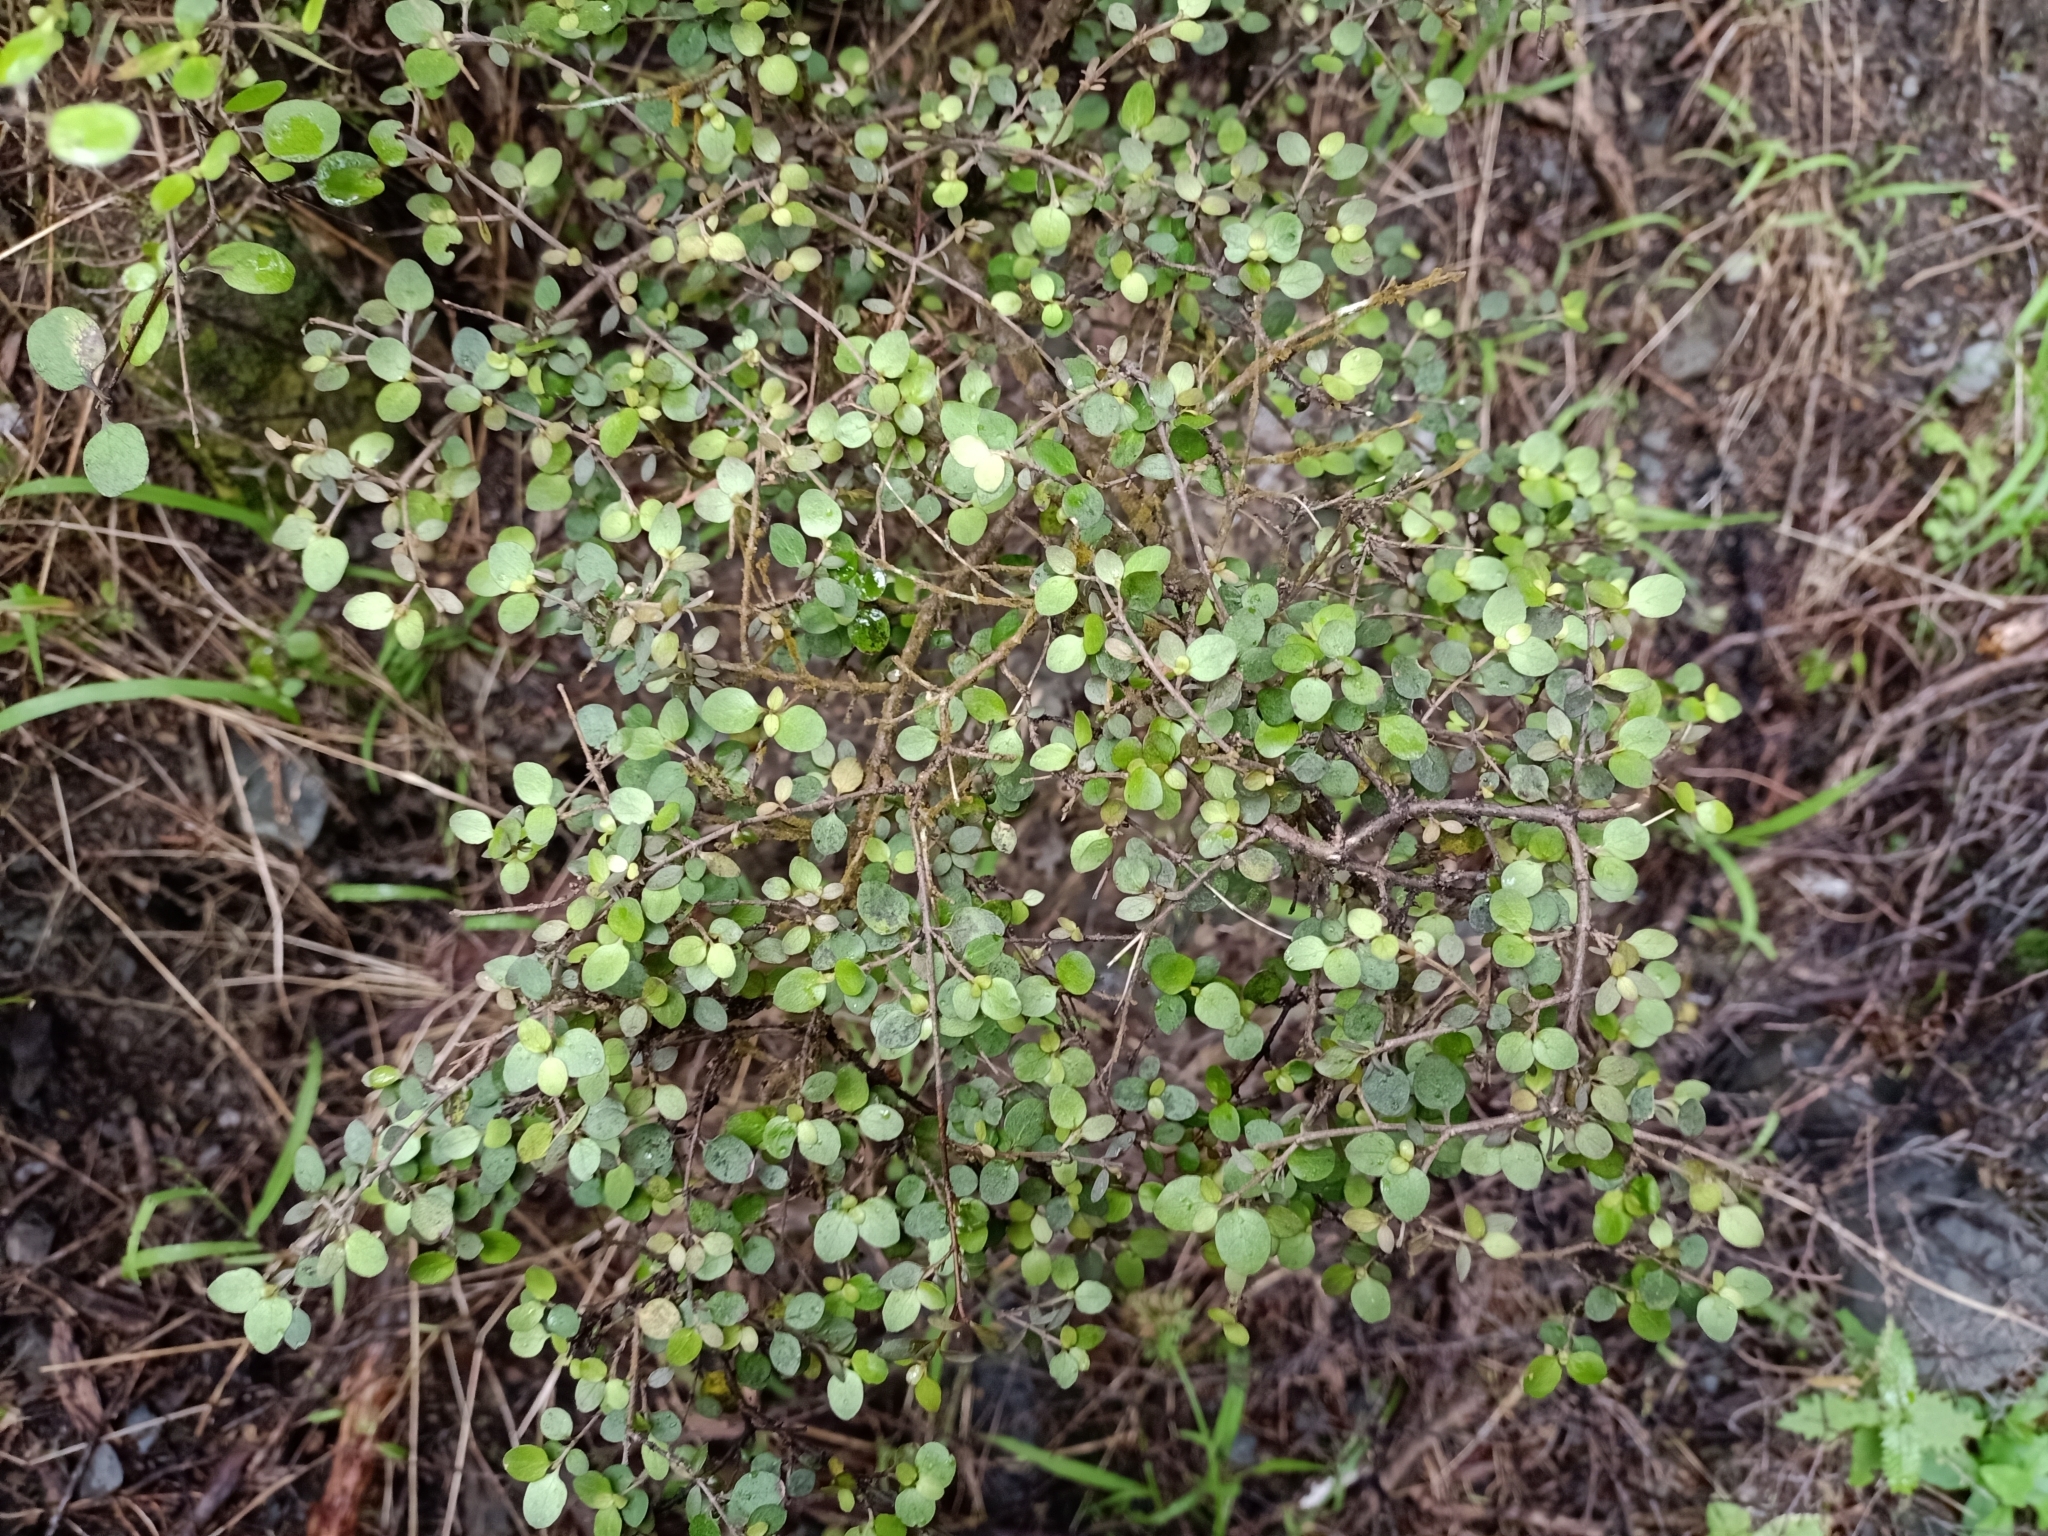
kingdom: Plantae
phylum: Tracheophyta
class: Magnoliopsida
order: Gentianales
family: Rubiaceae
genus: Coprosma
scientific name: Coprosma rhamnoides
